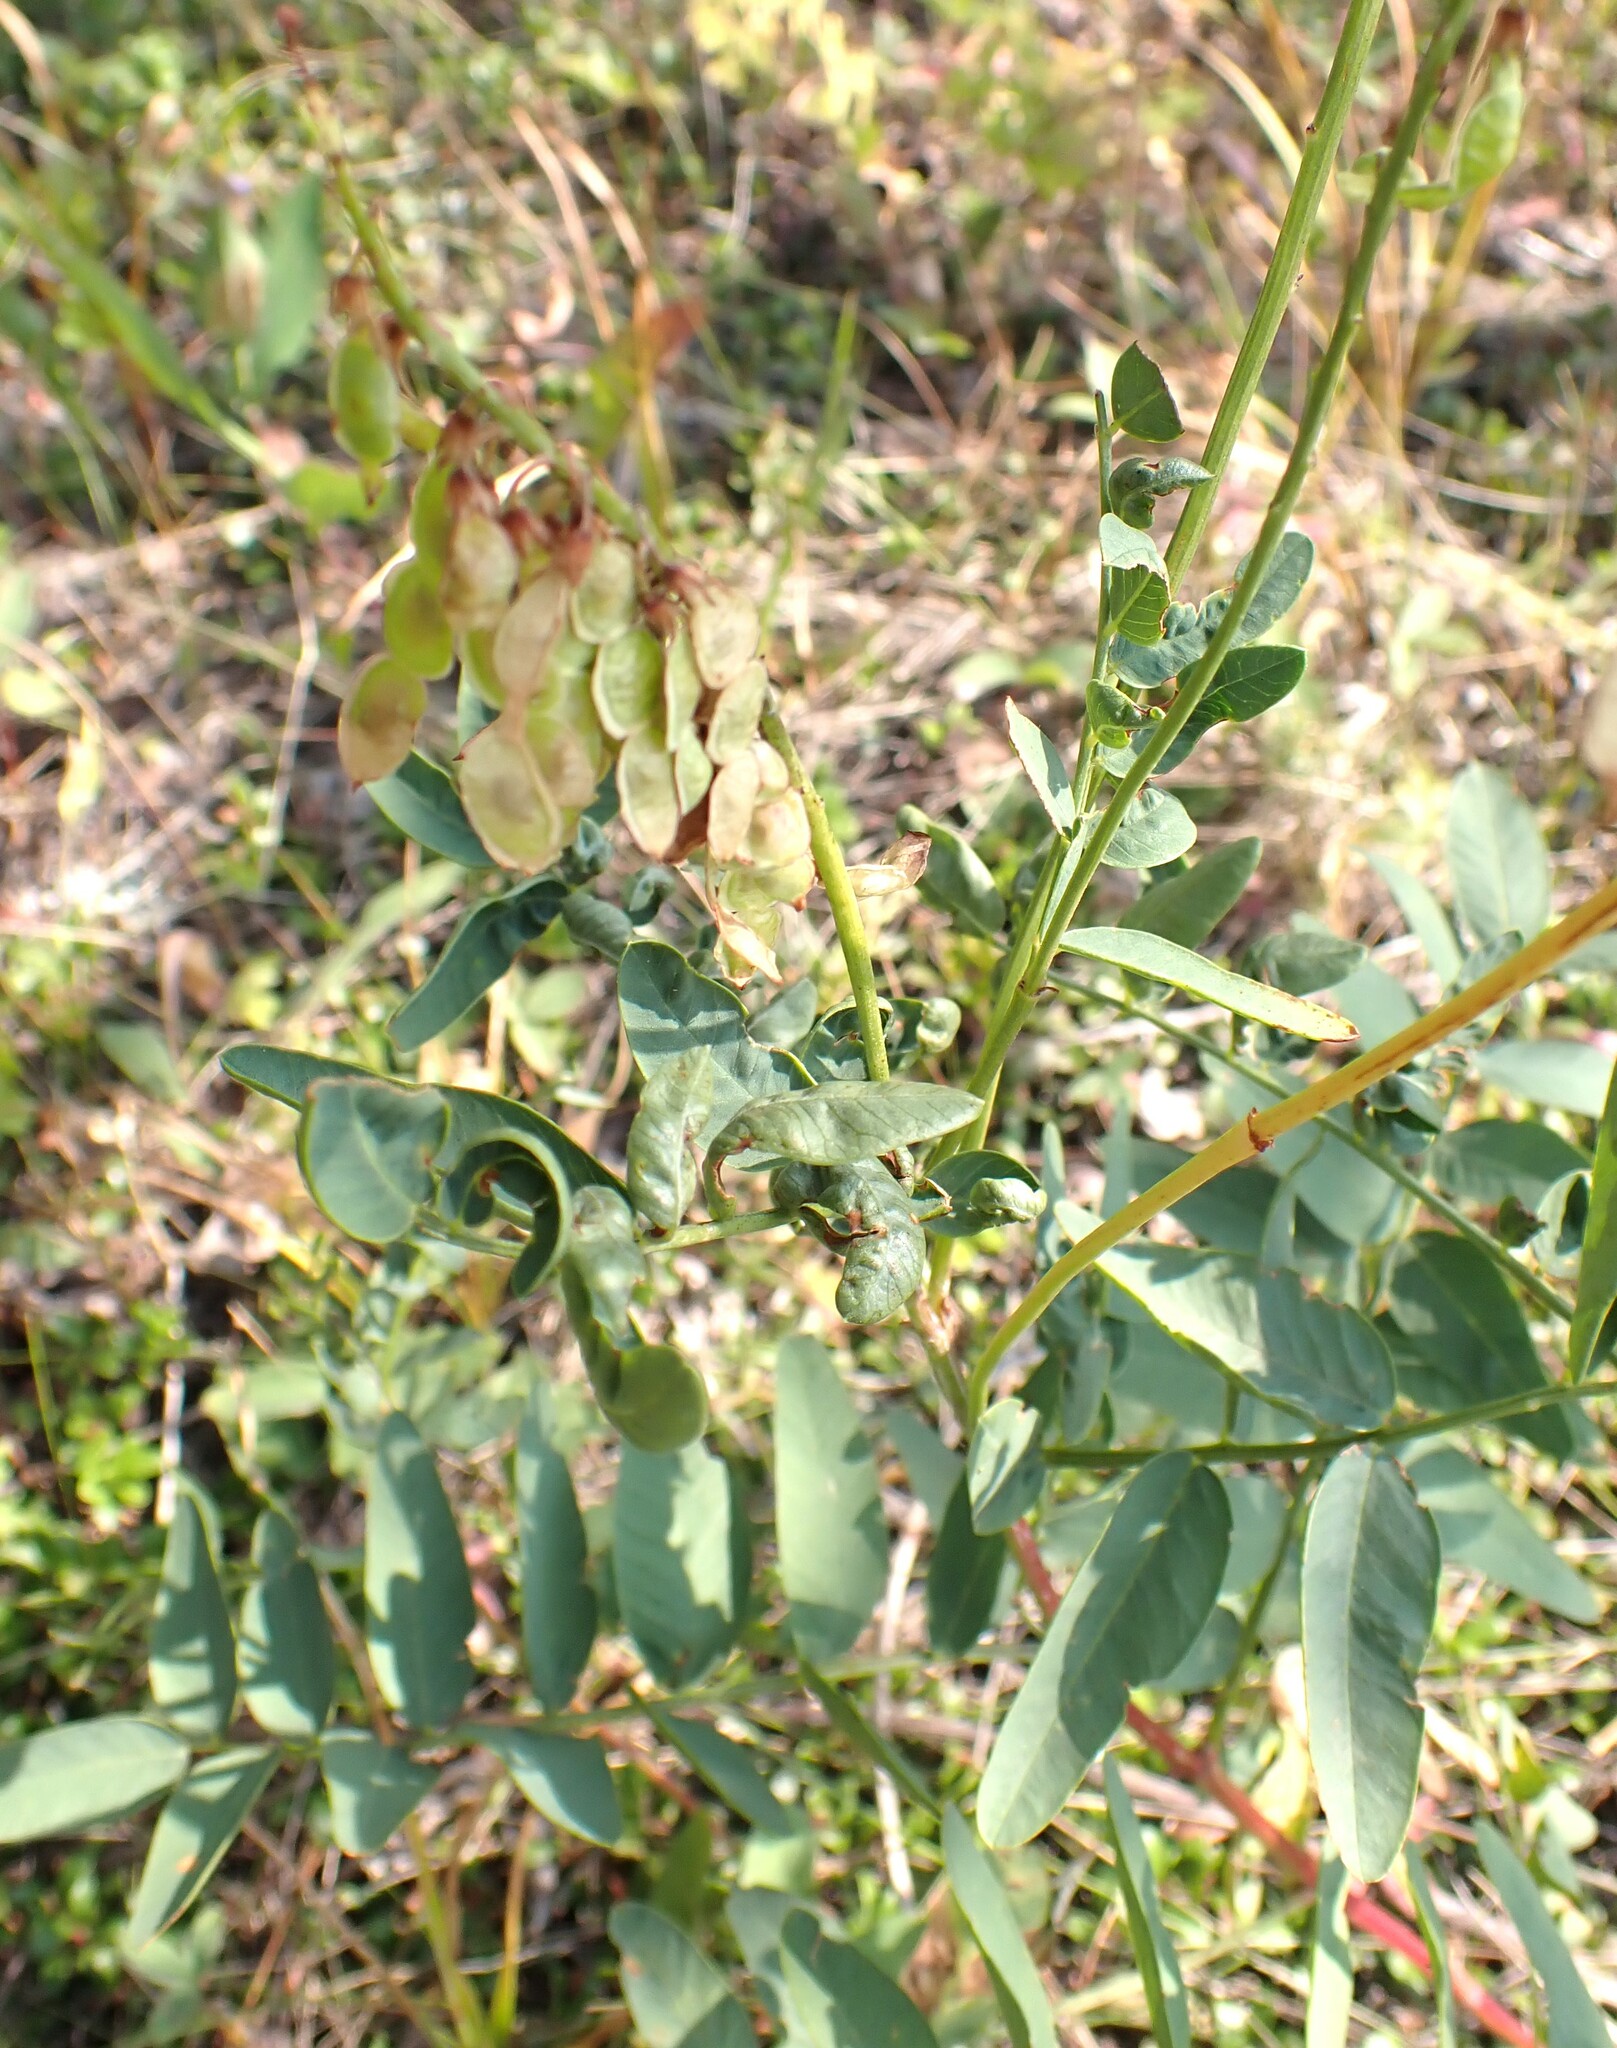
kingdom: Plantae
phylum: Tracheophyta
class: Magnoliopsida
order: Fabales
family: Fabaceae
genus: Hedysarum
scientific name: Hedysarum sulphurescens
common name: Sulphur hedysarum
